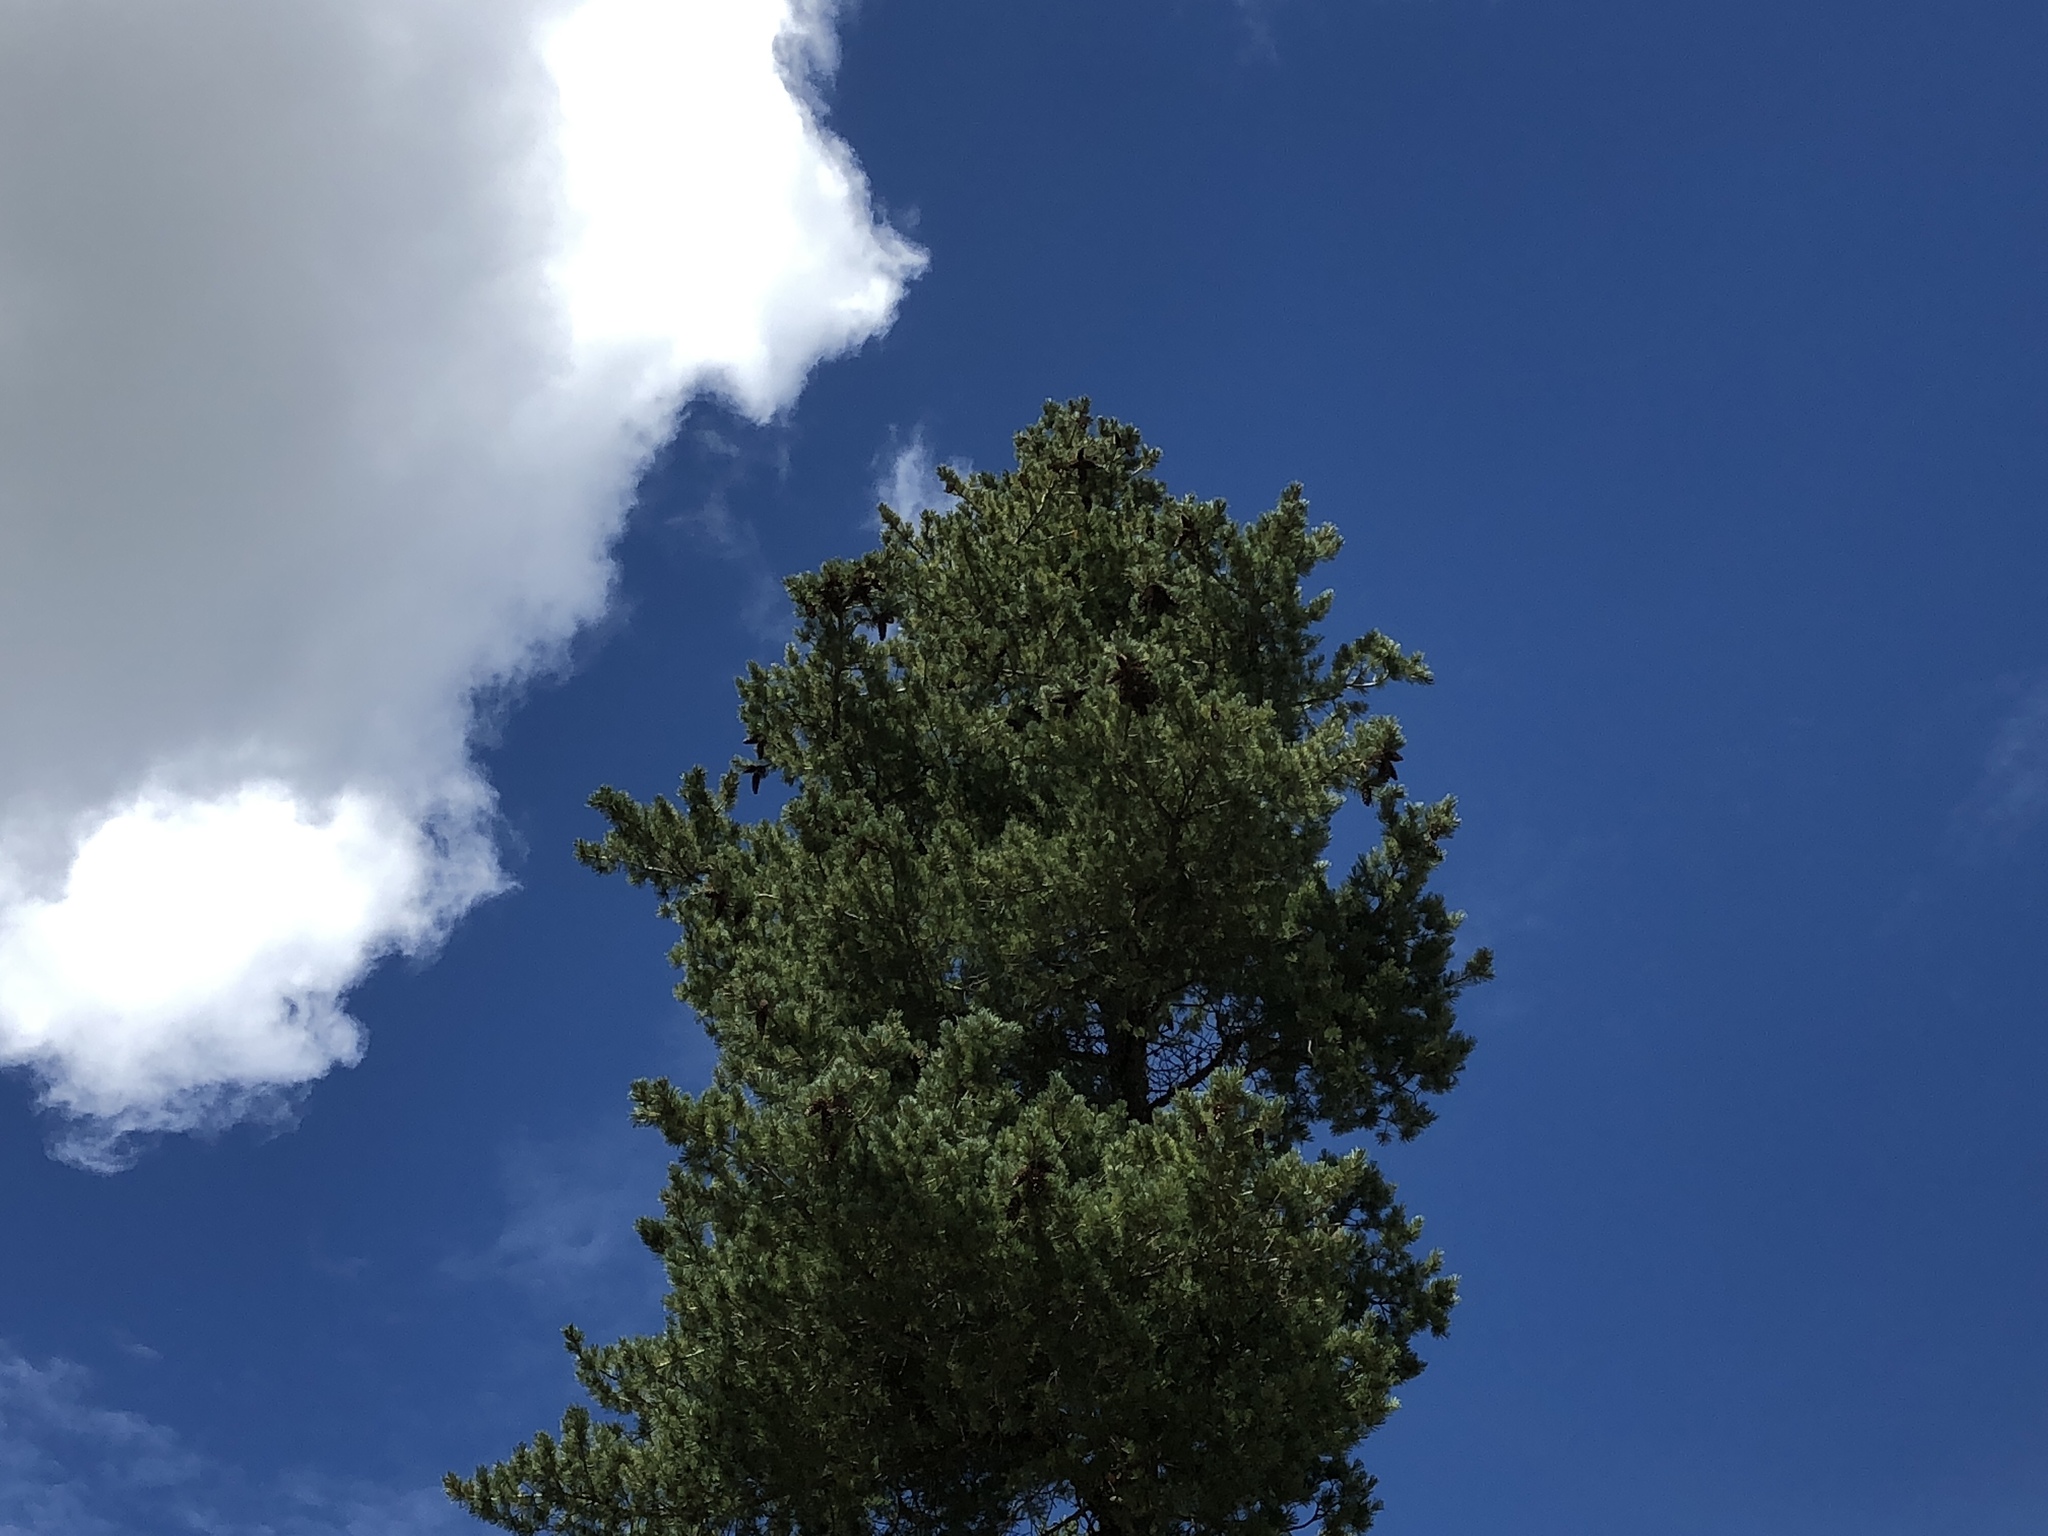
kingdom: Plantae
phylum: Tracheophyta
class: Pinopsida
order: Pinales
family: Pinaceae
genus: Pinus
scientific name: Pinus strobiformis
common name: Southwestern white pine
